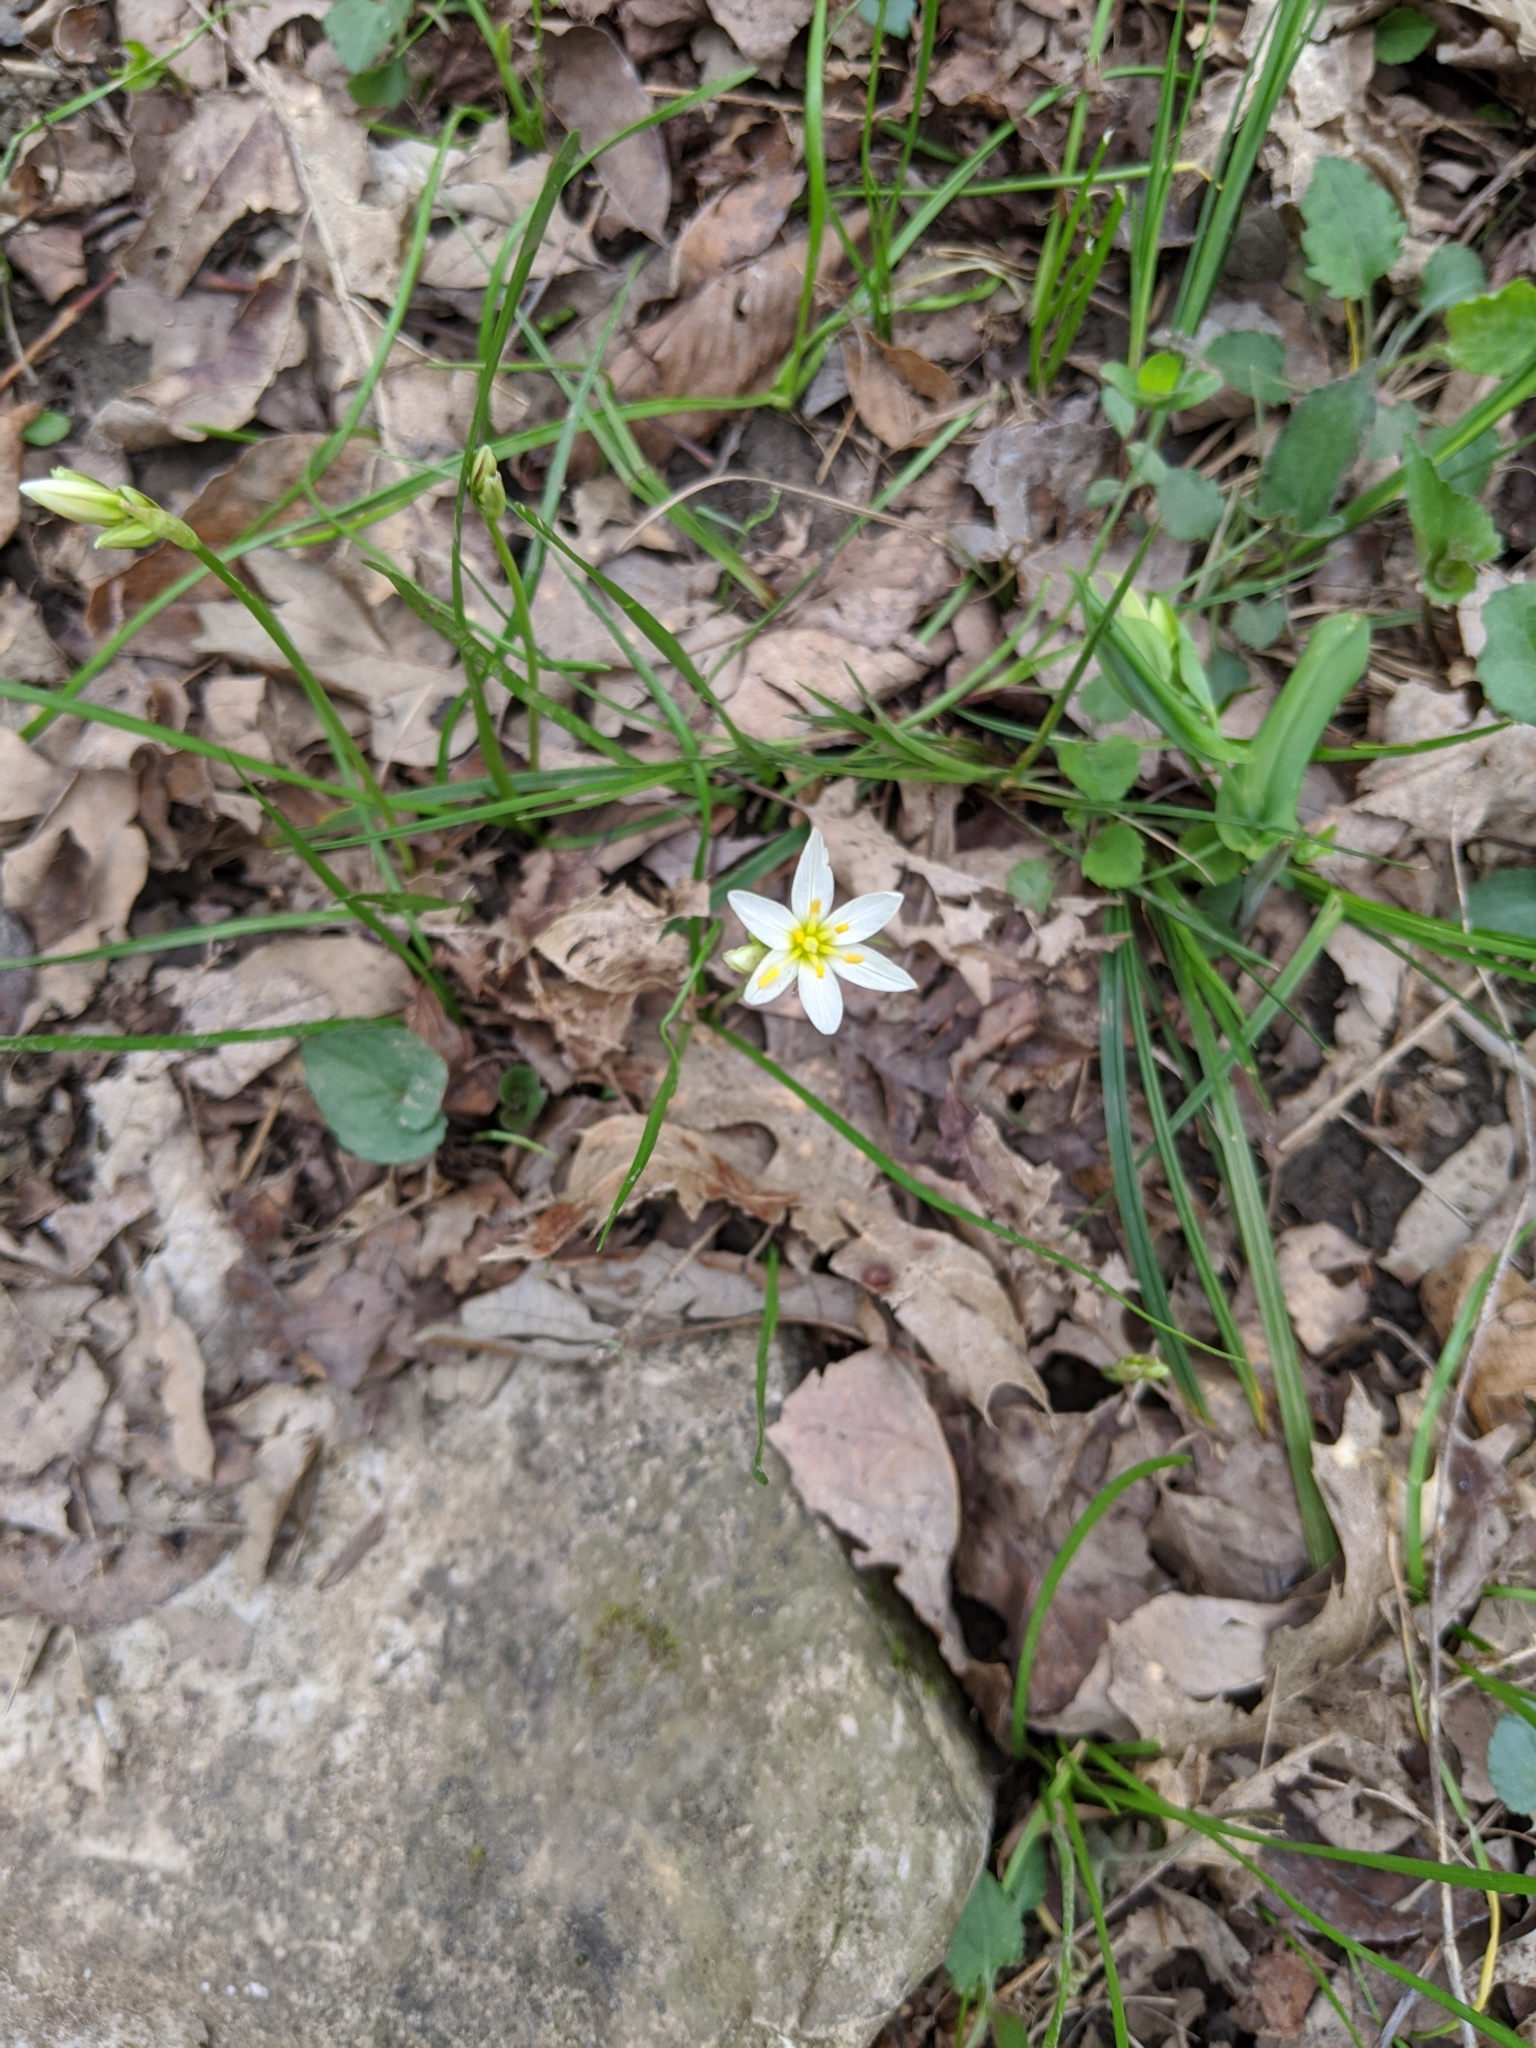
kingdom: Plantae
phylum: Tracheophyta
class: Liliopsida
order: Asparagales
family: Amaryllidaceae
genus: Nothoscordum
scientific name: Nothoscordum bivalve
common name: Crow-poison
